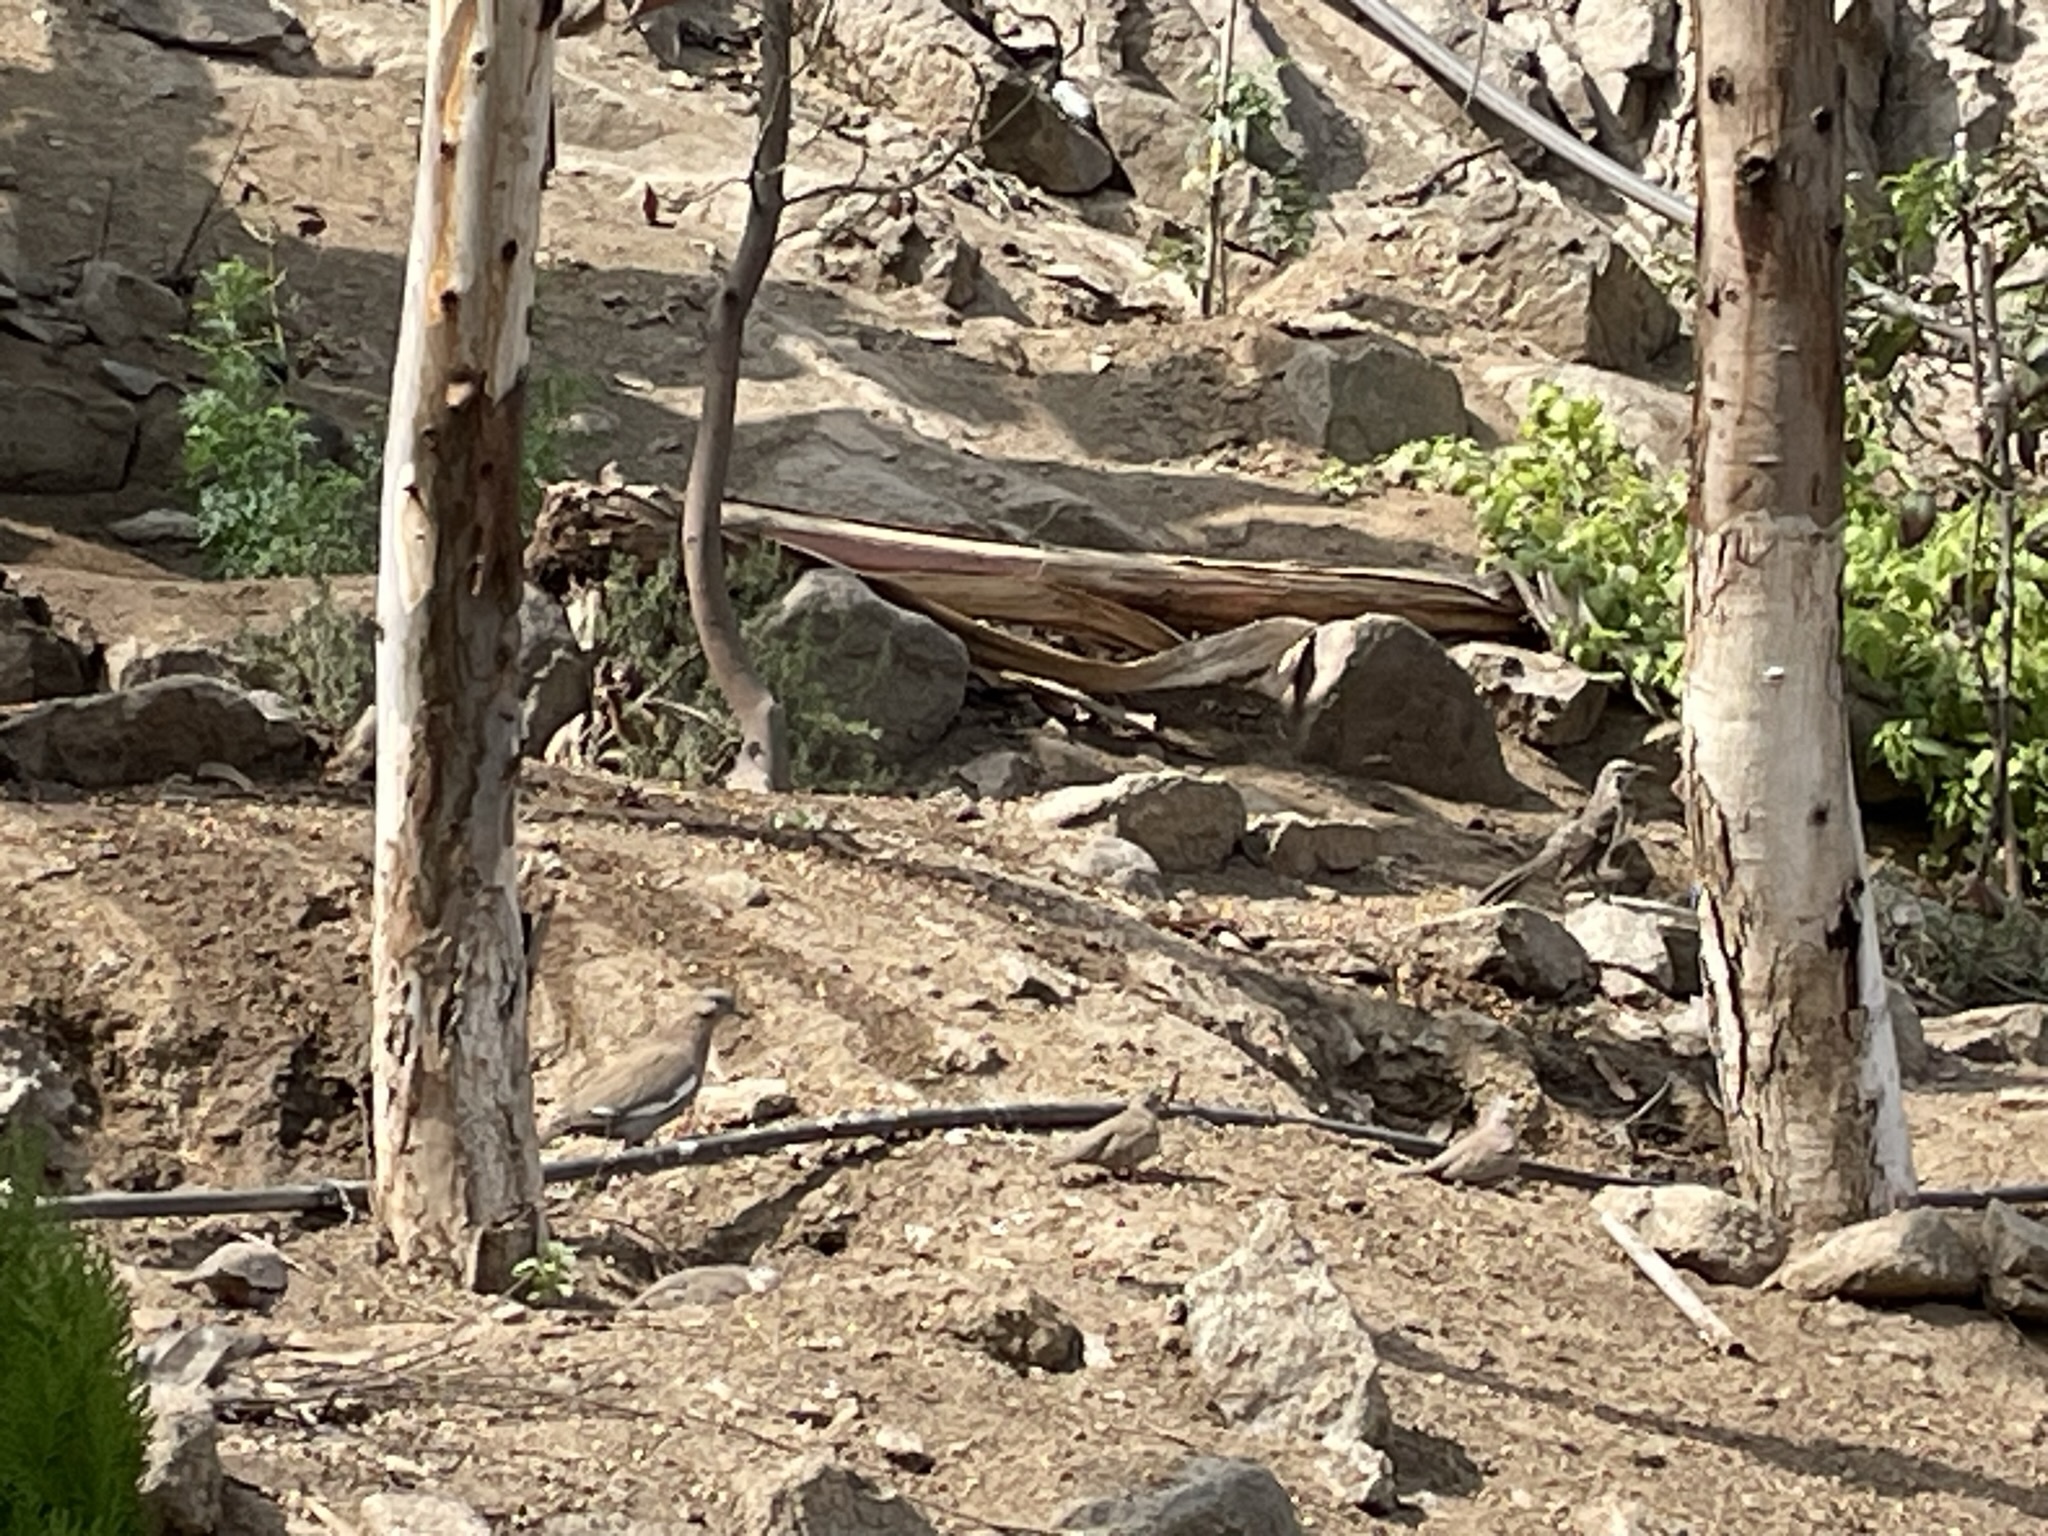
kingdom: Animalia
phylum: Chordata
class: Aves
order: Columbiformes
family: Columbidae
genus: Zenaida
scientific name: Zenaida meloda
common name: West peruvian dove
